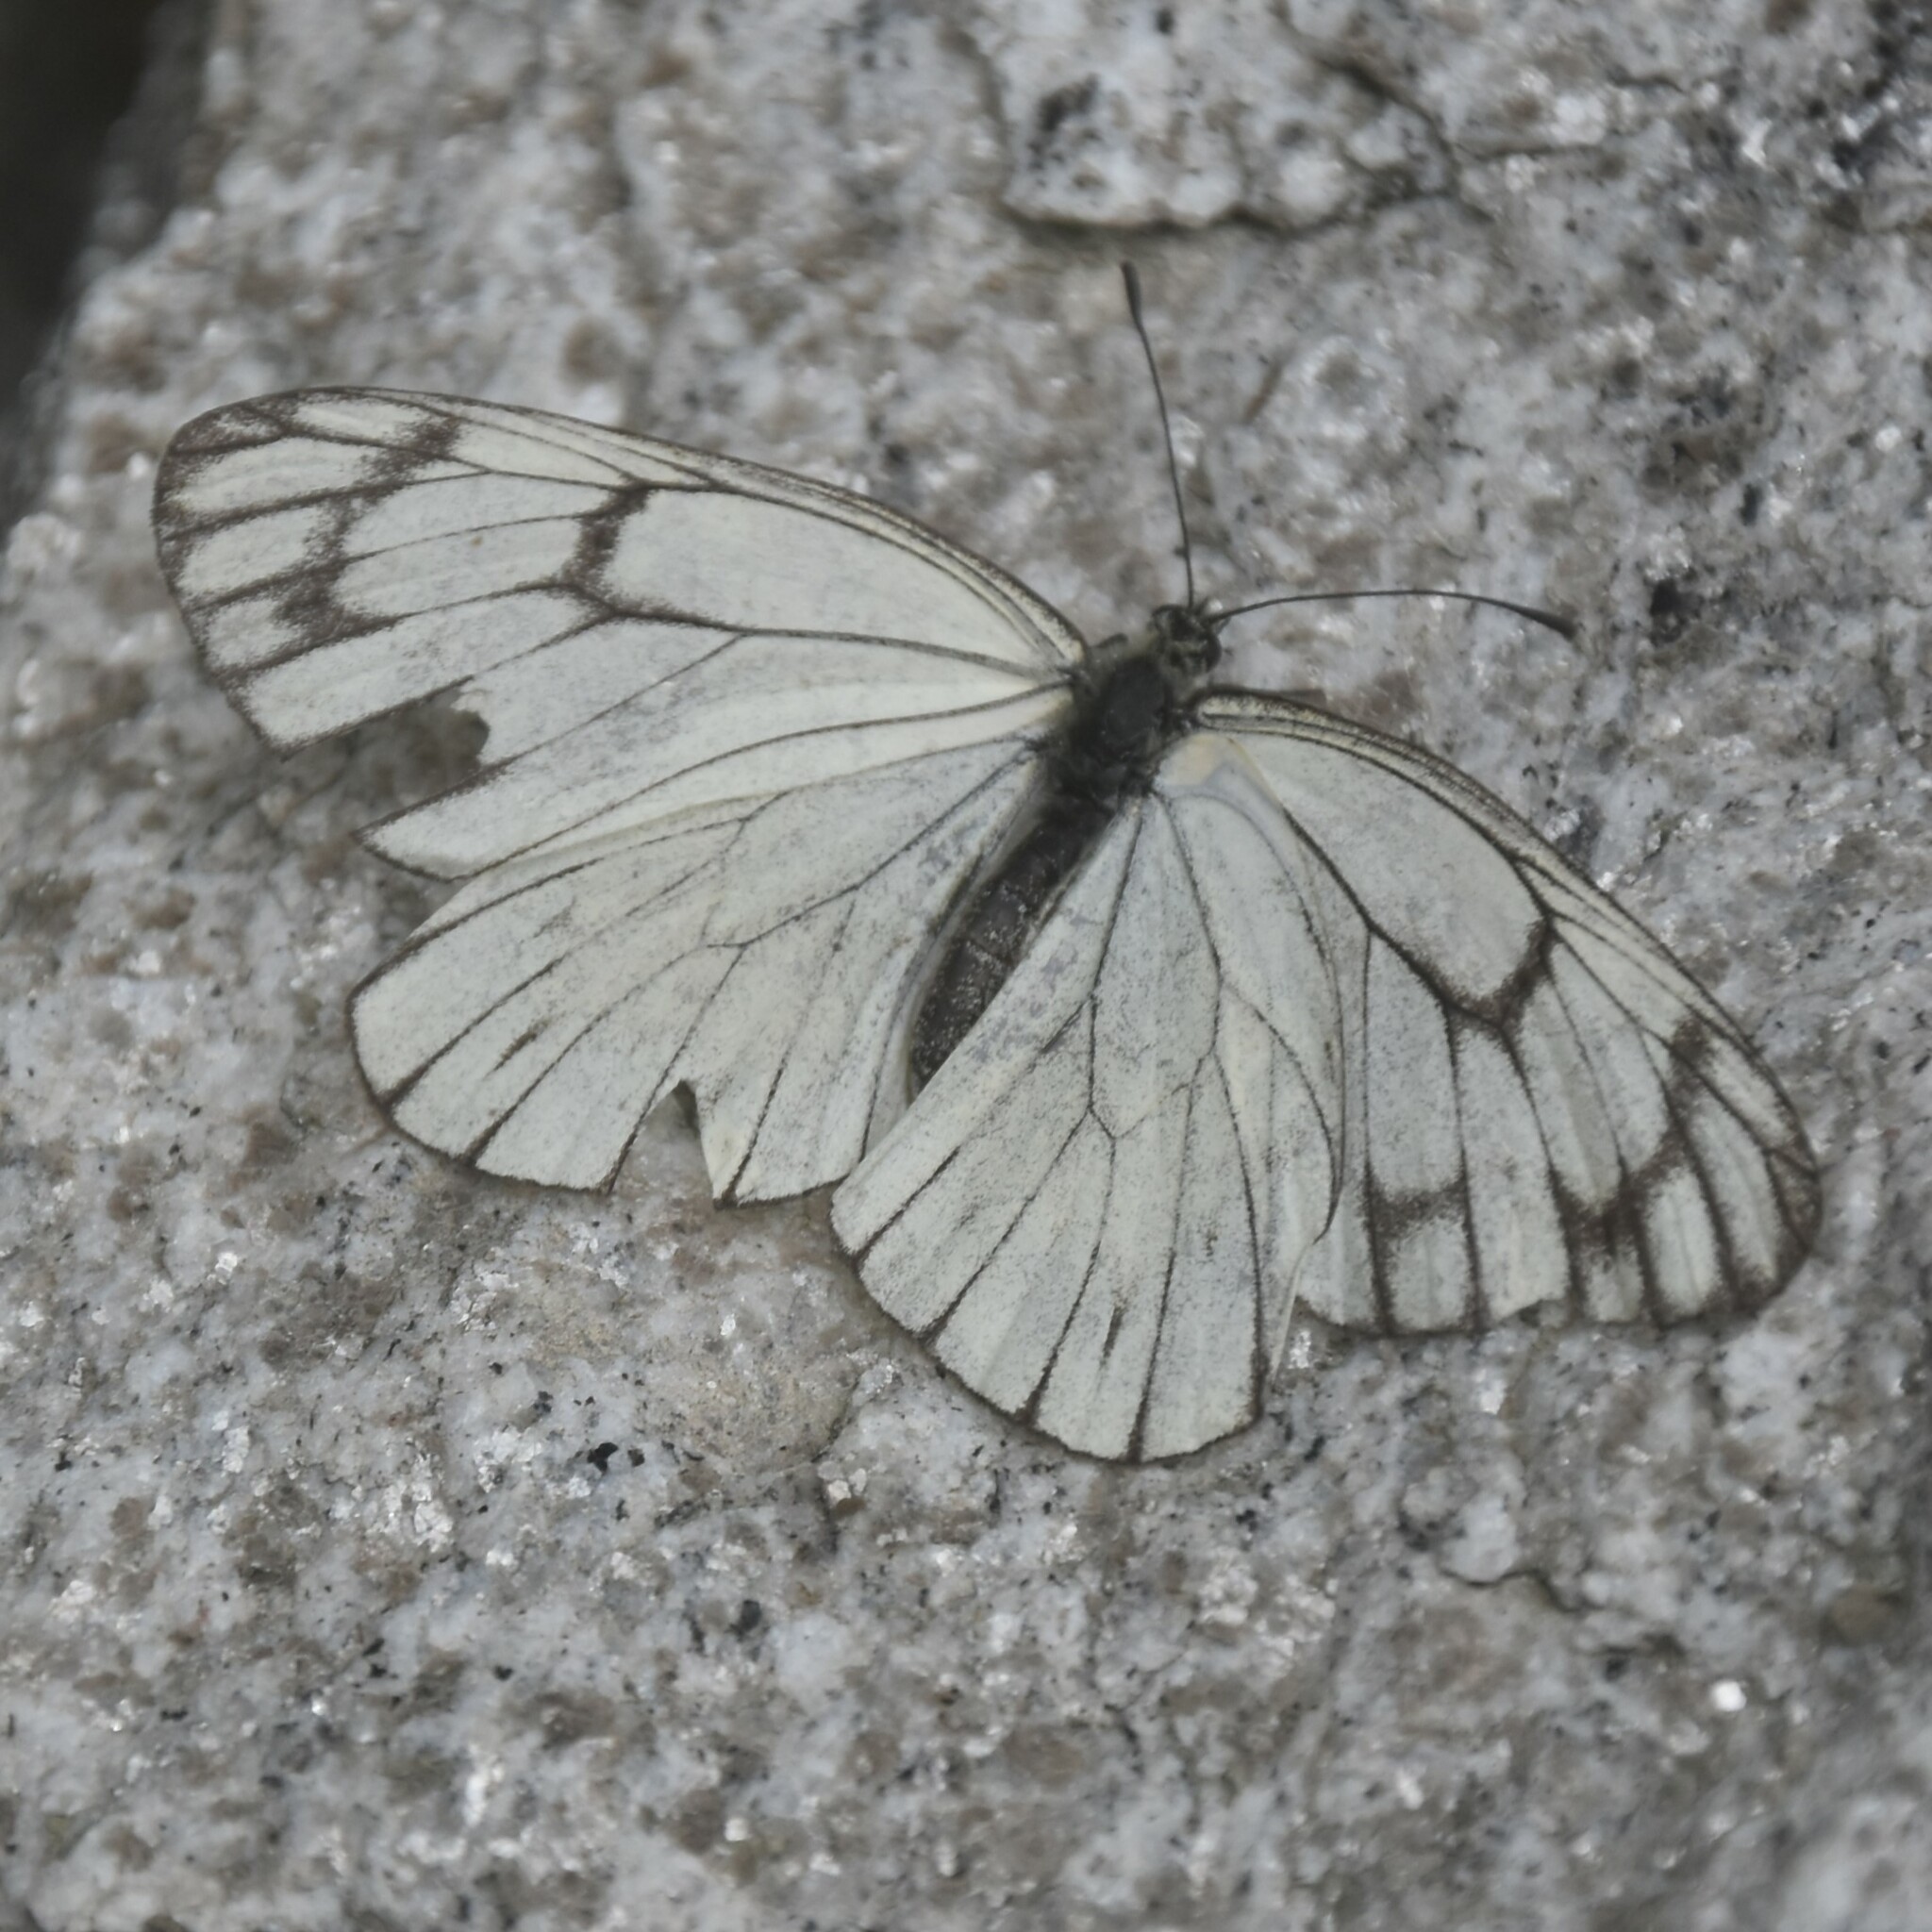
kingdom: Animalia
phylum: Arthropoda
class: Insecta
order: Lepidoptera
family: Pieridae
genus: Aporia
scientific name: Aporia leucodice
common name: Himalayan blackvein
